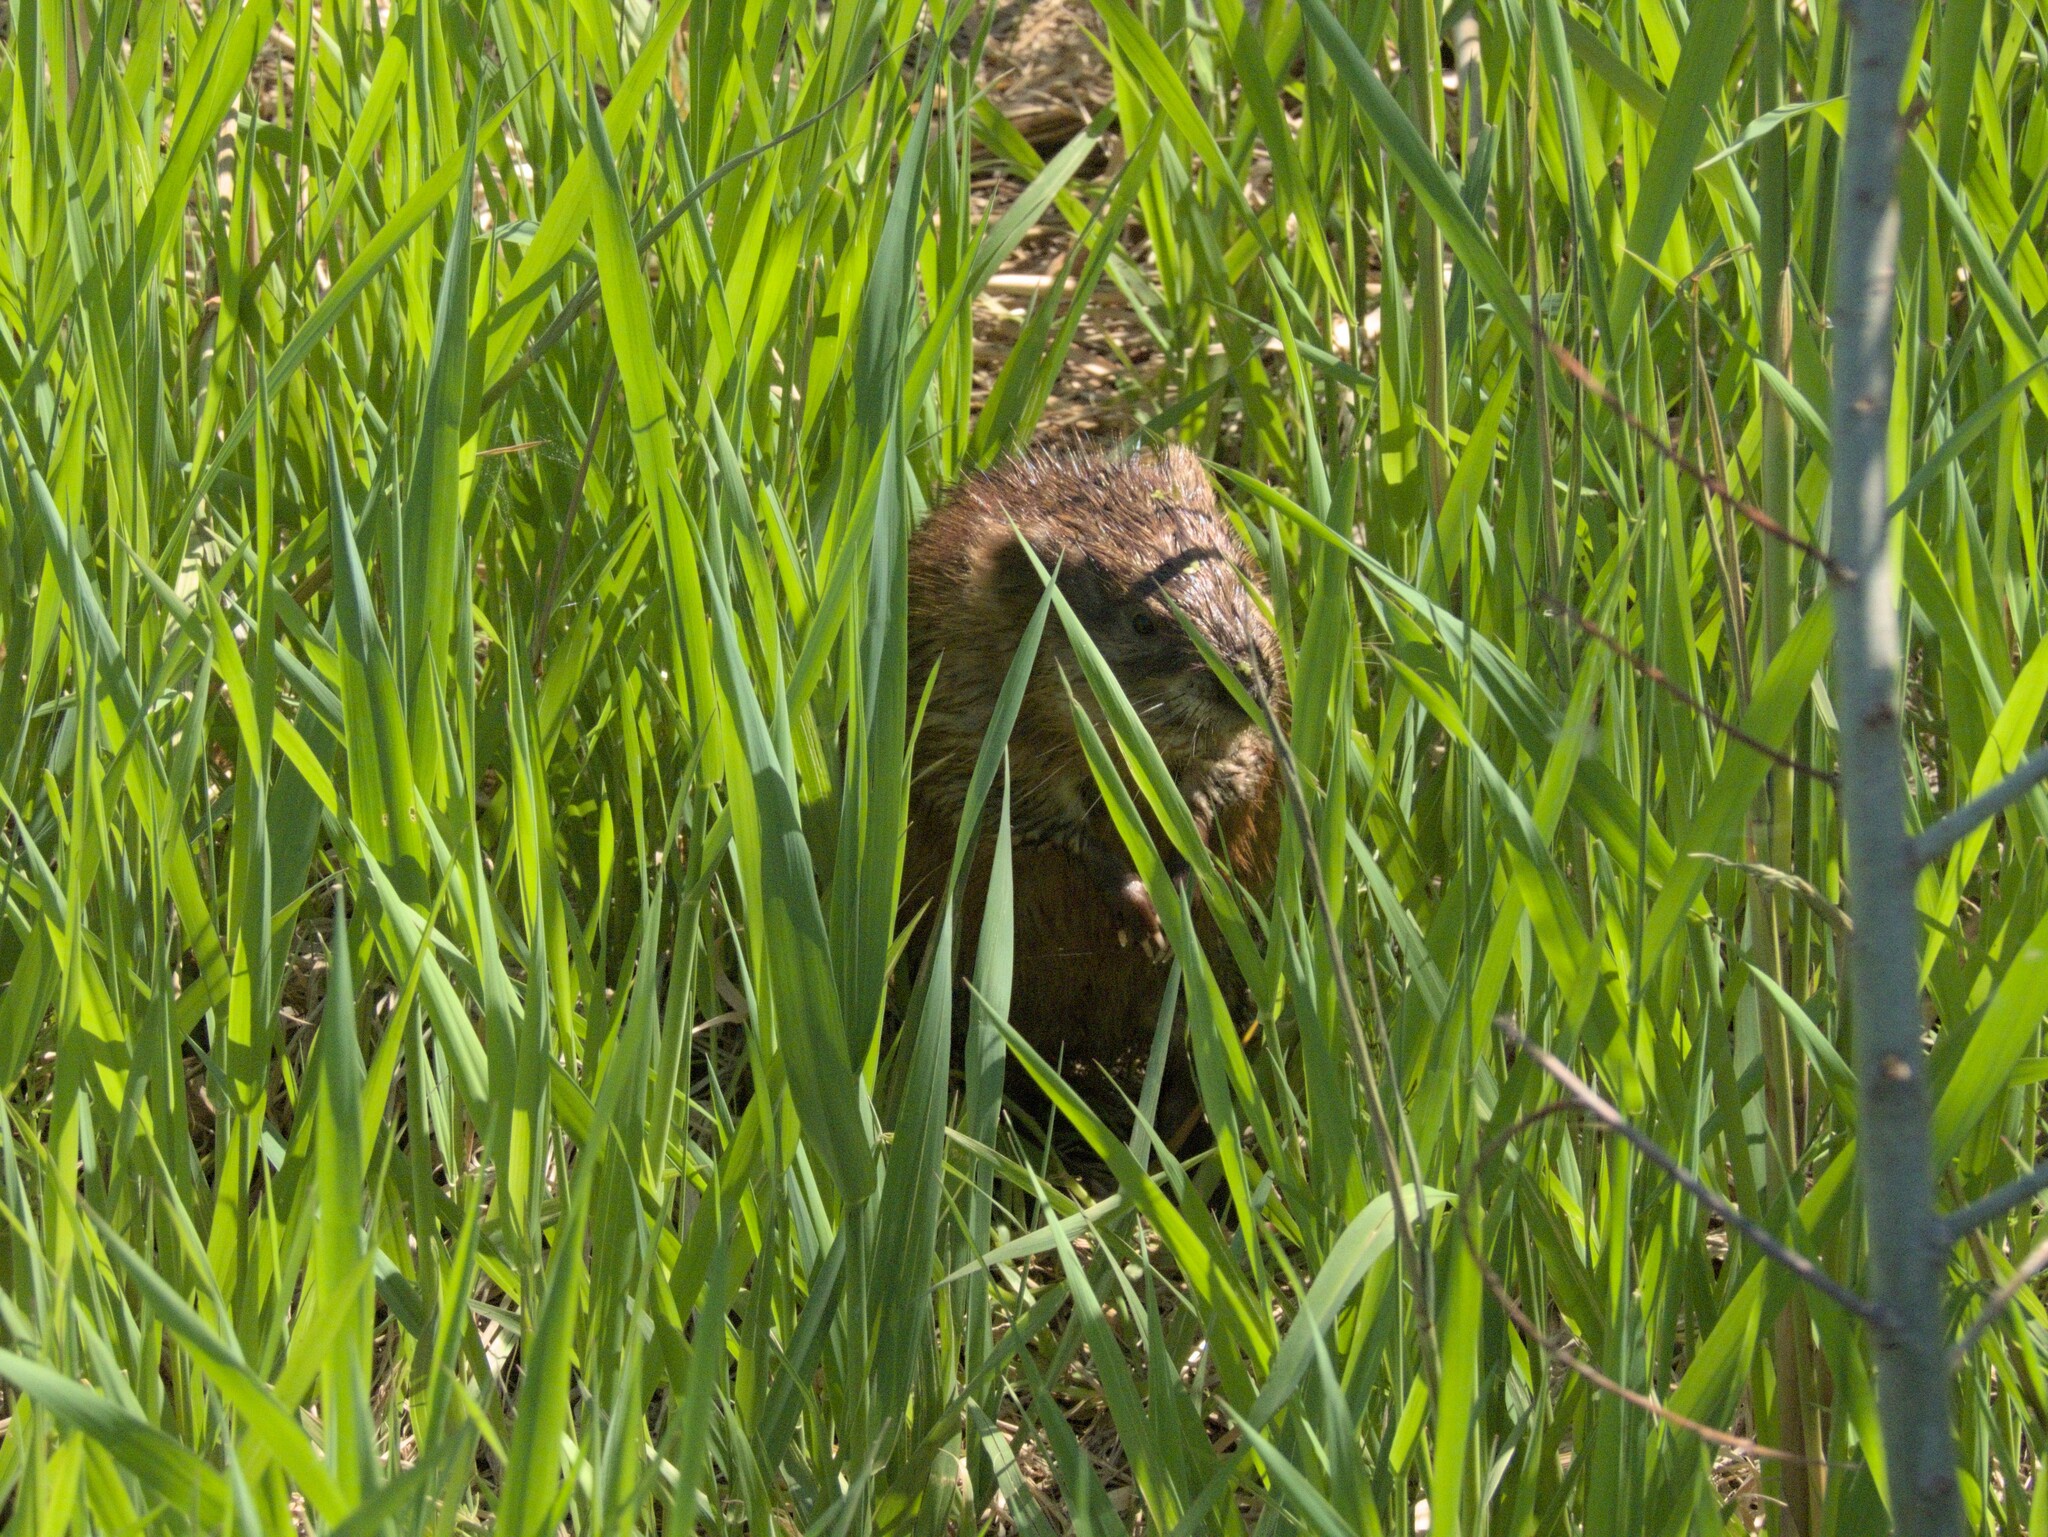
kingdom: Animalia
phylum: Chordata
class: Mammalia
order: Rodentia
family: Cricetidae
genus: Ondatra
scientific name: Ondatra zibethicus
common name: Muskrat
